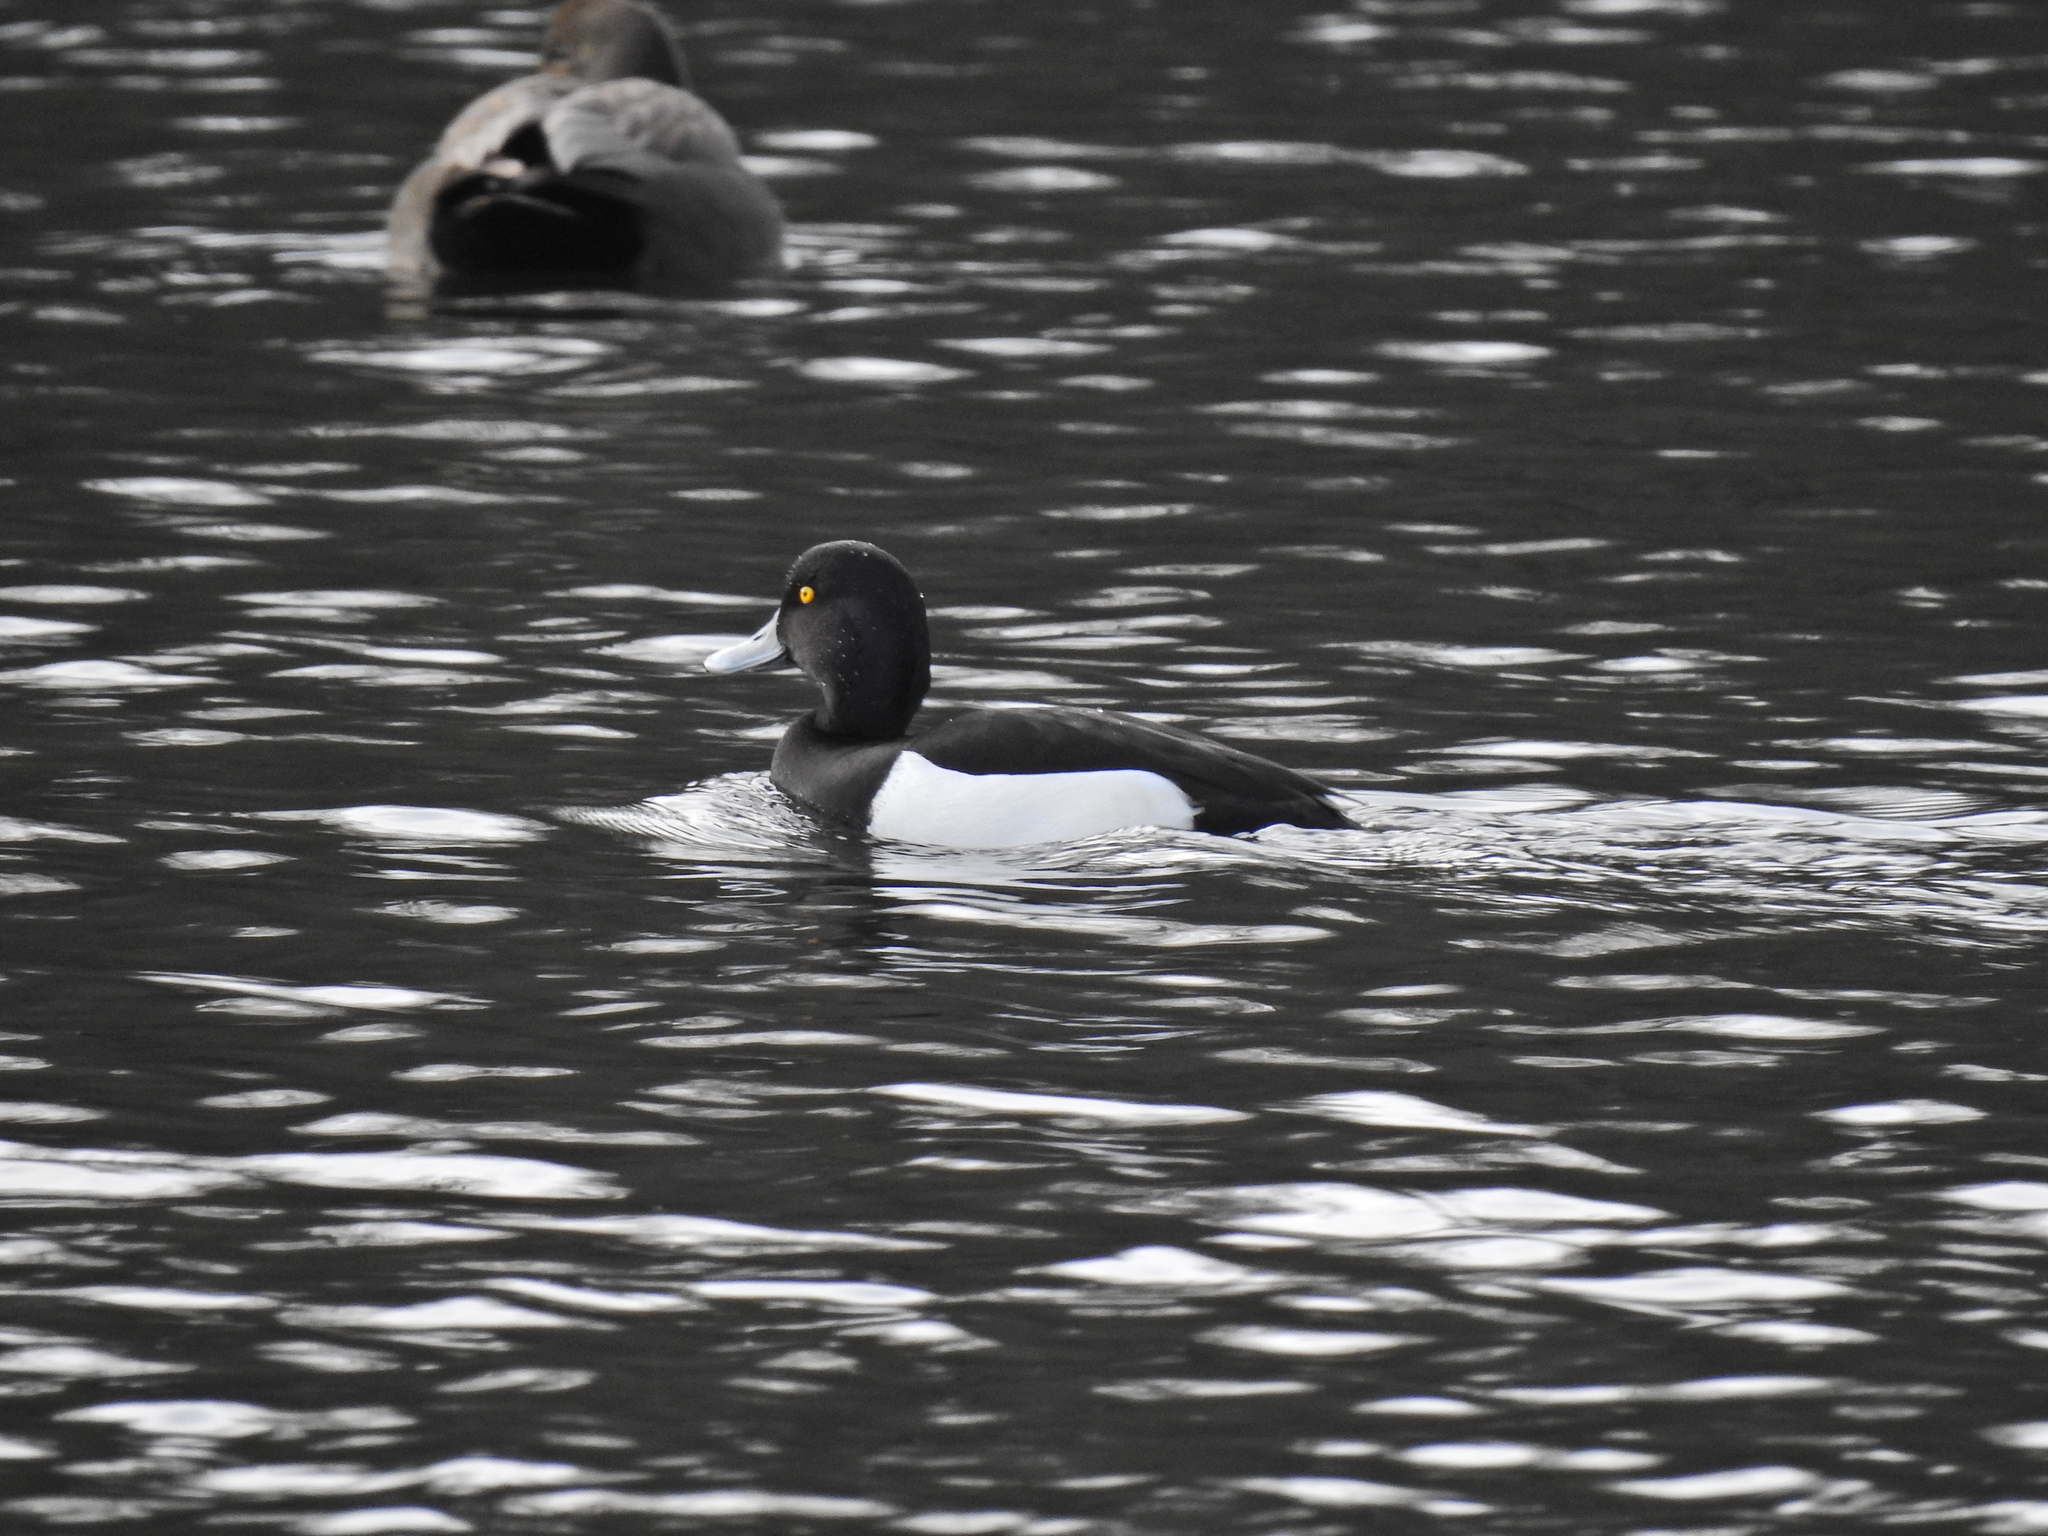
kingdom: Animalia
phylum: Chordata
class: Aves
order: Anseriformes
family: Anatidae
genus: Aythya
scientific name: Aythya fuligula
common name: Tufted duck
